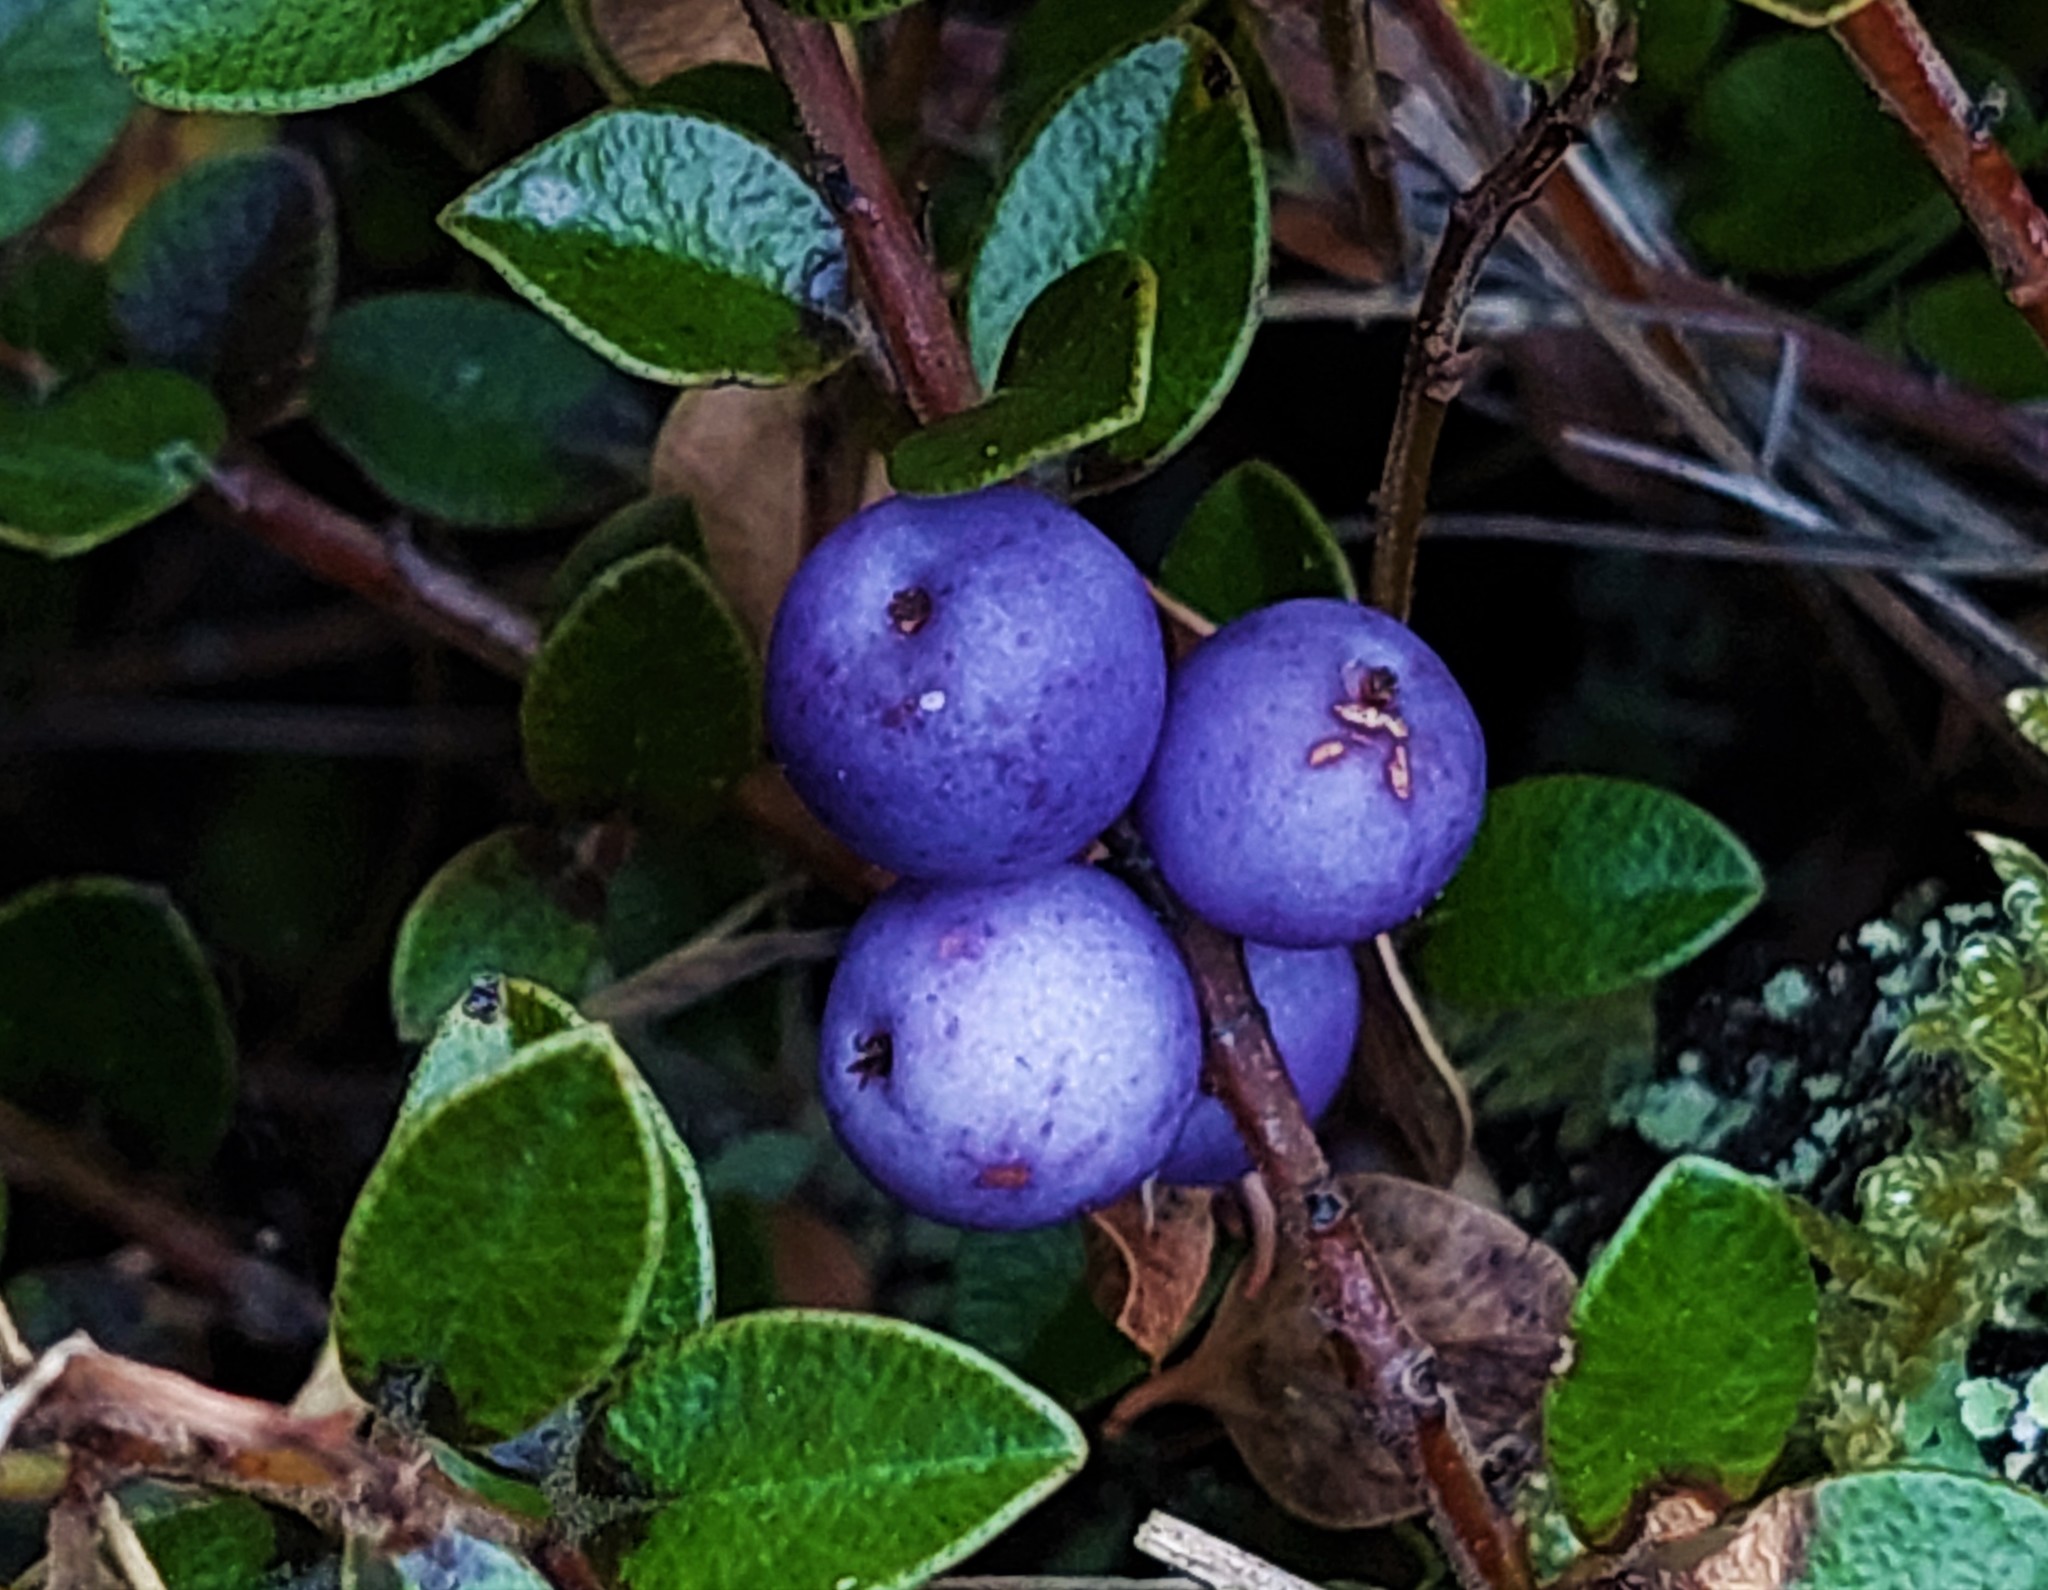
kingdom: Plantae
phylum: Tracheophyta
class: Magnoliopsida
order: Ericales
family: Primulaceae
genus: Myrsine
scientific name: Myrsine nummularia
